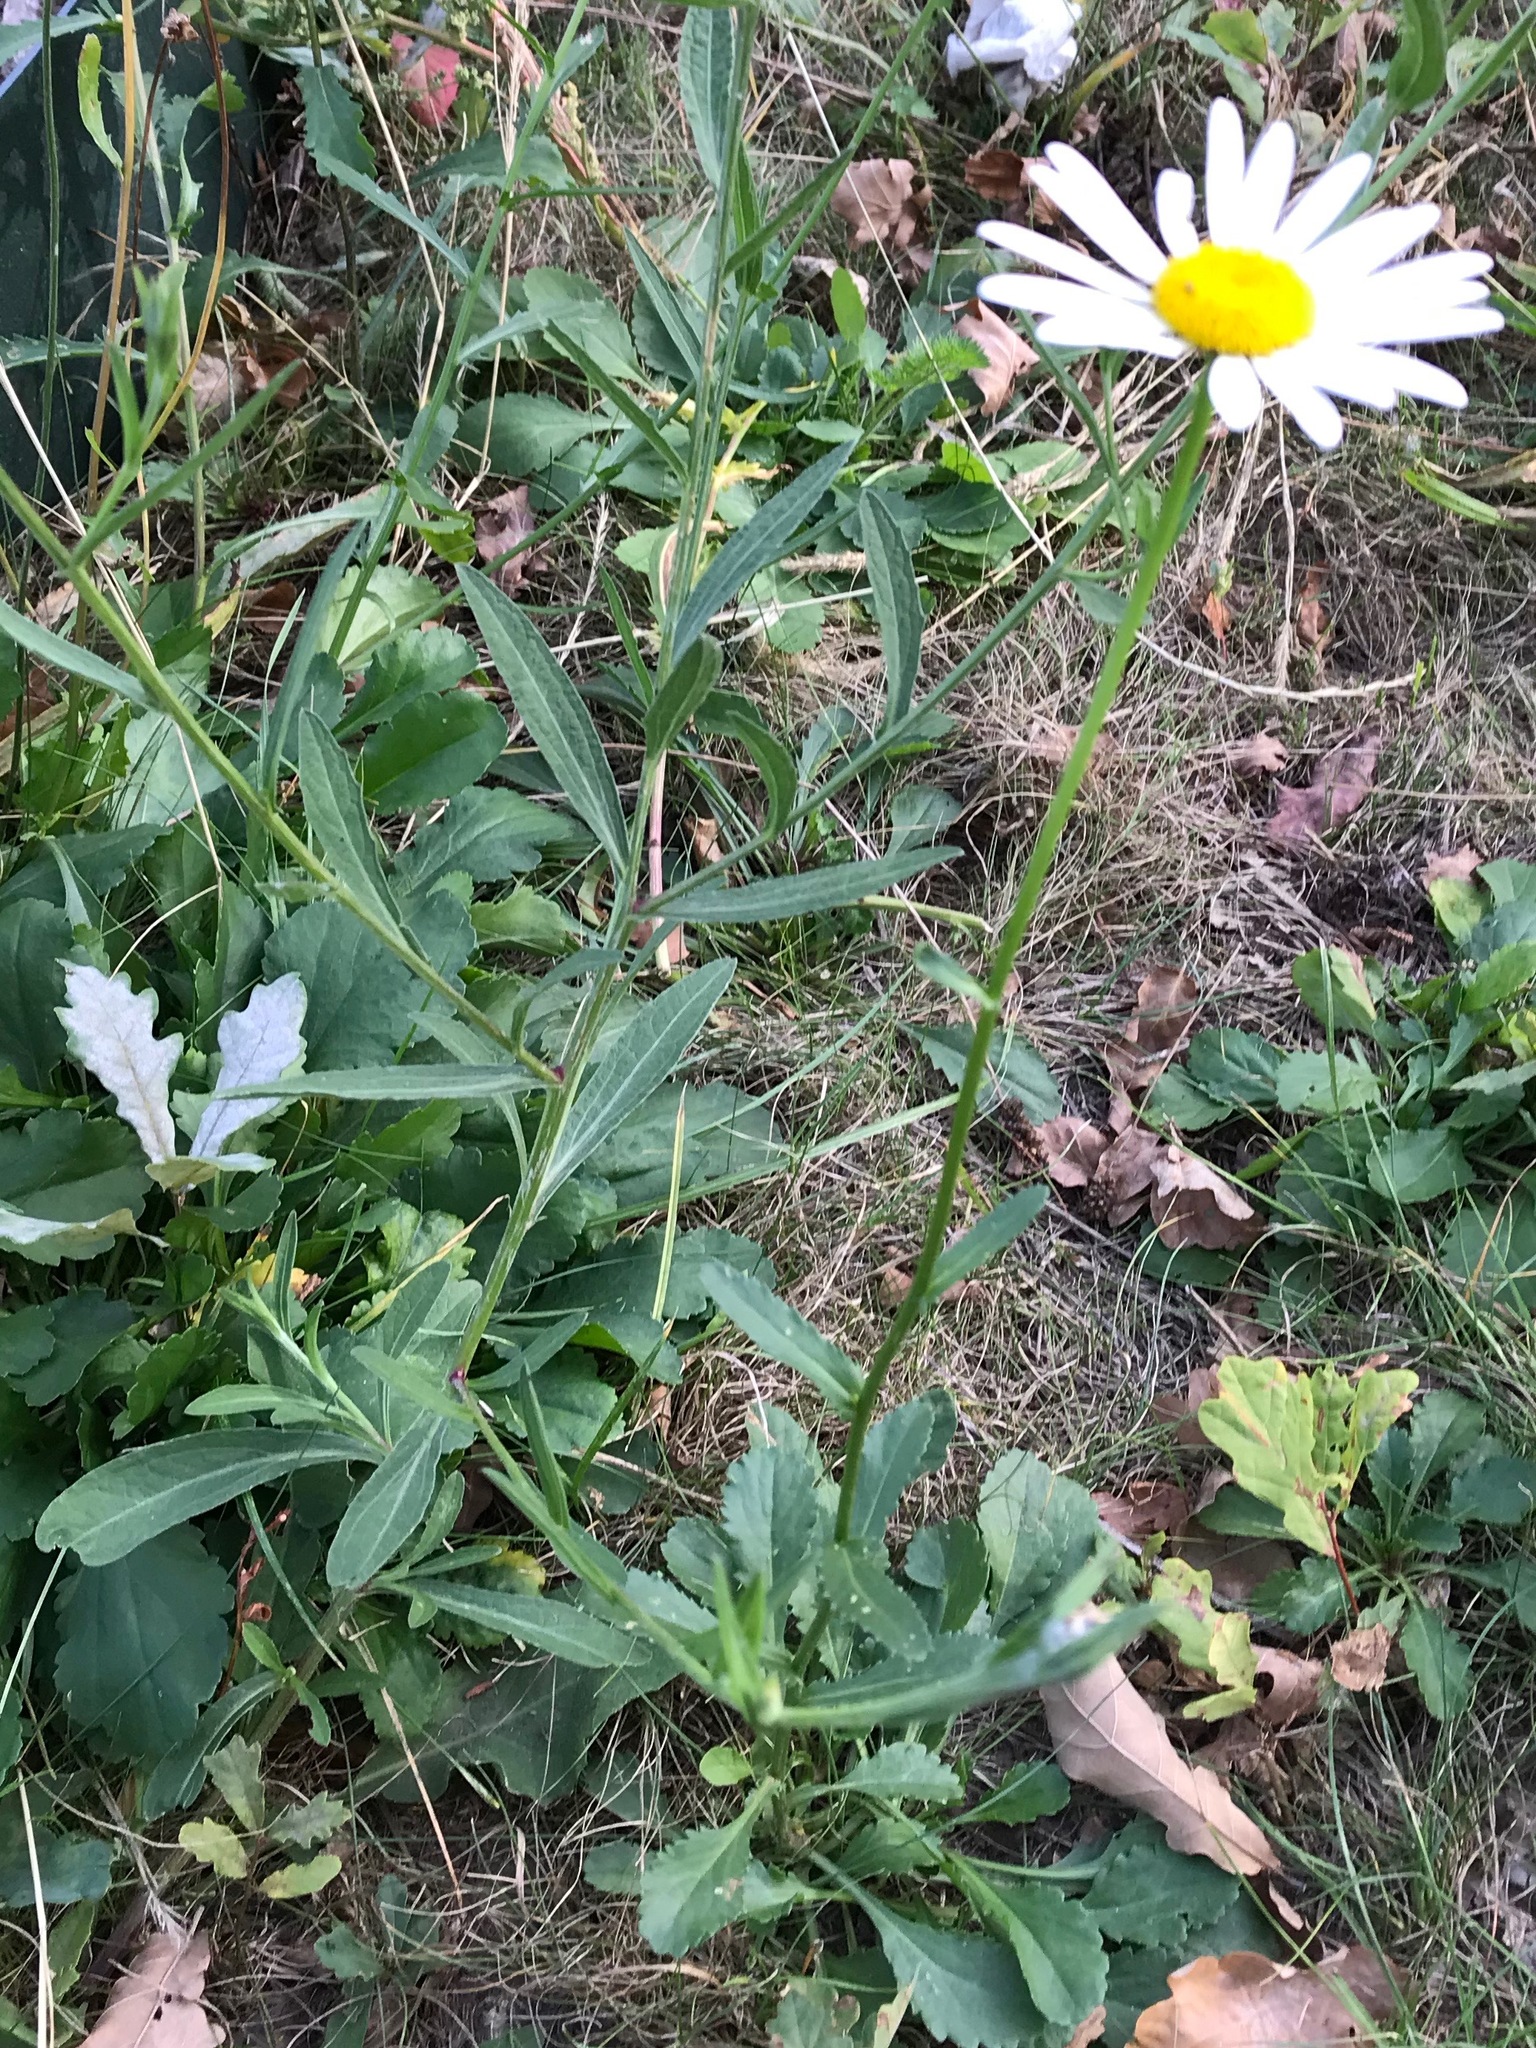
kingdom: Plantae
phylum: Tracheophyta
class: Magnoliopsida
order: Asterales
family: Asteraceae
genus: Leucanthemum
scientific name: Leucanthemum ircutianum
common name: Daisy
